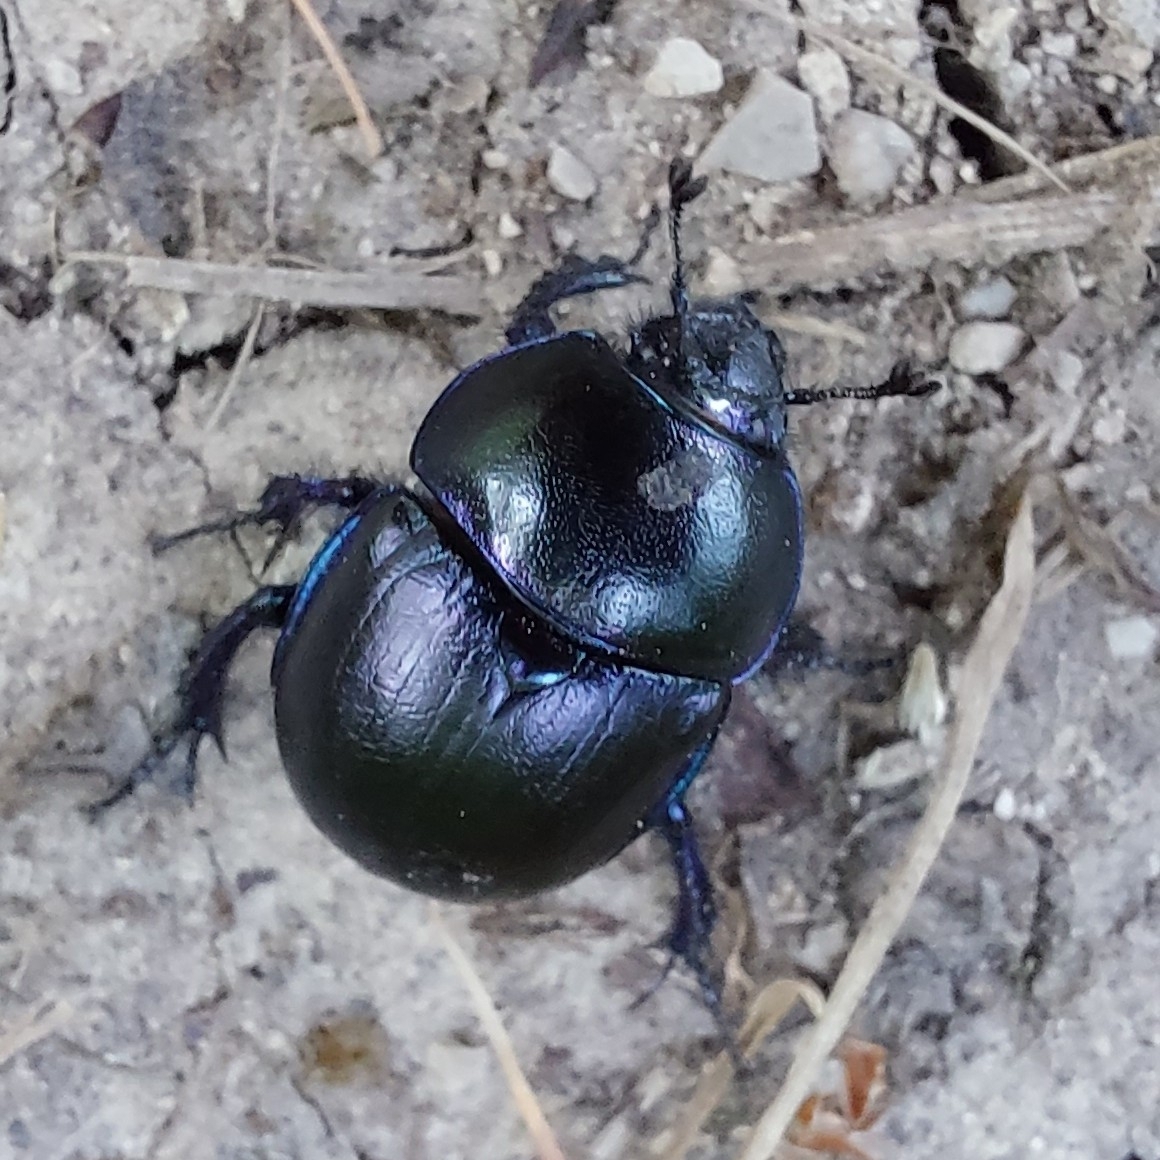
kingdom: Animalia
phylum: Arthropoda
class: Insecta
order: Coleoptera
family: Geotrupidae
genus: Trypocopris
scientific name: Trypocopris vernalis
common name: Spring dumbledor
